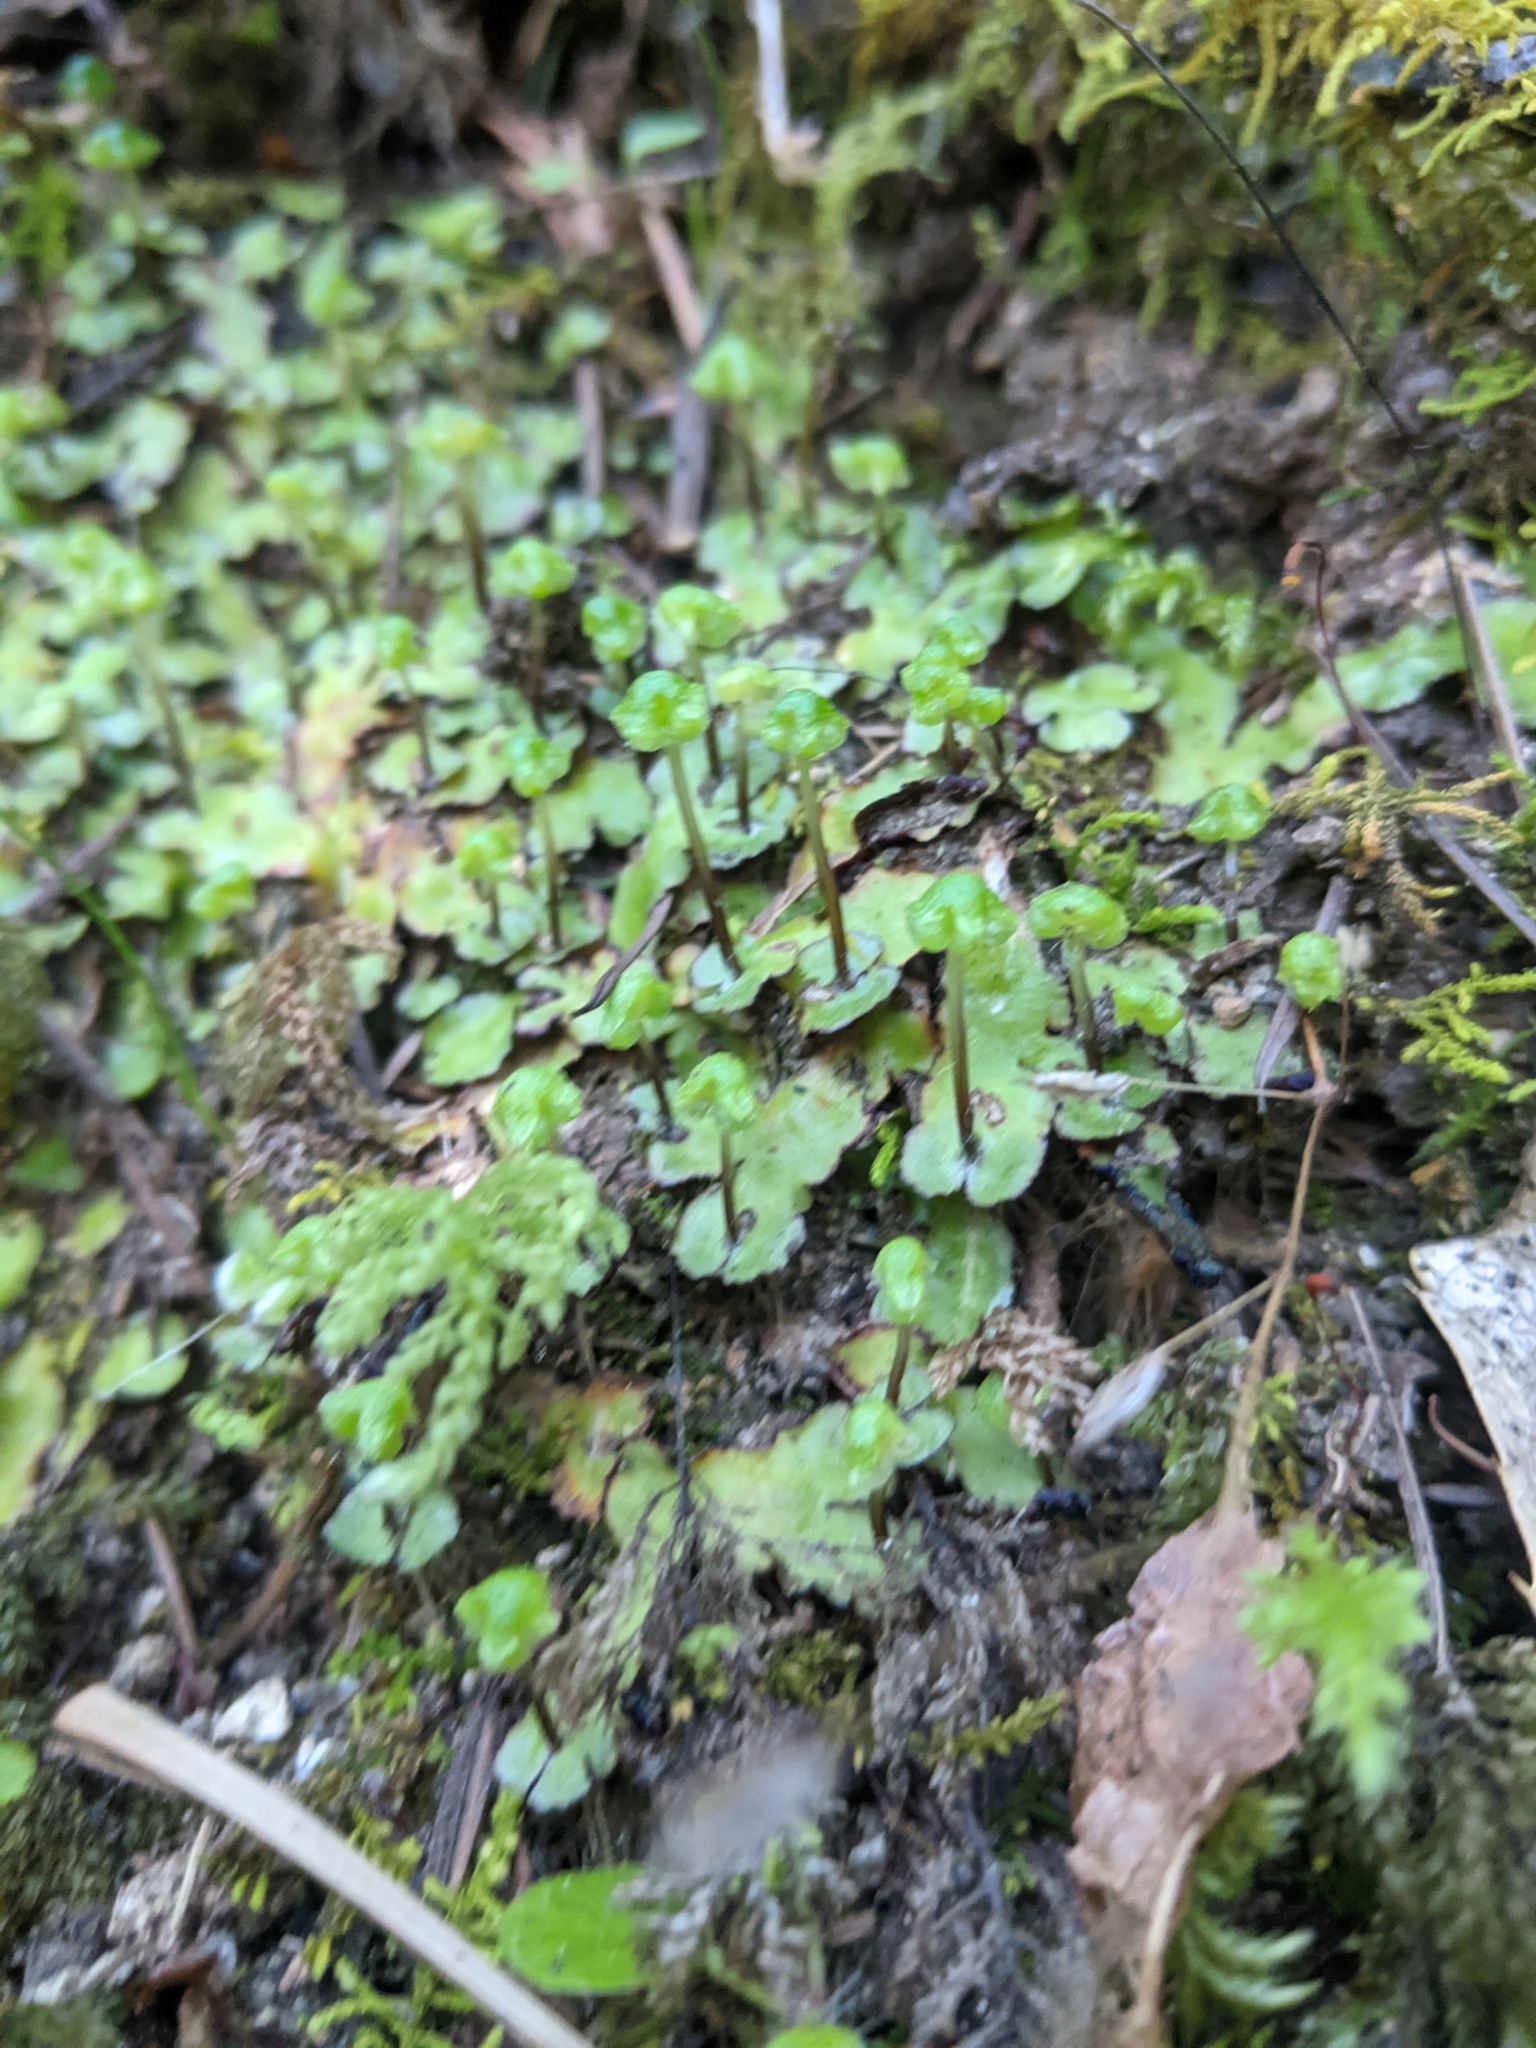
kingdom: Plantae
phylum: Marchantiophyta
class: Marchantiopsida
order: Marchantiales
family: Aytoniaceae
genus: Reboulia
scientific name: Reboulia hemisphaerica
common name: Purple-margined liverwort
